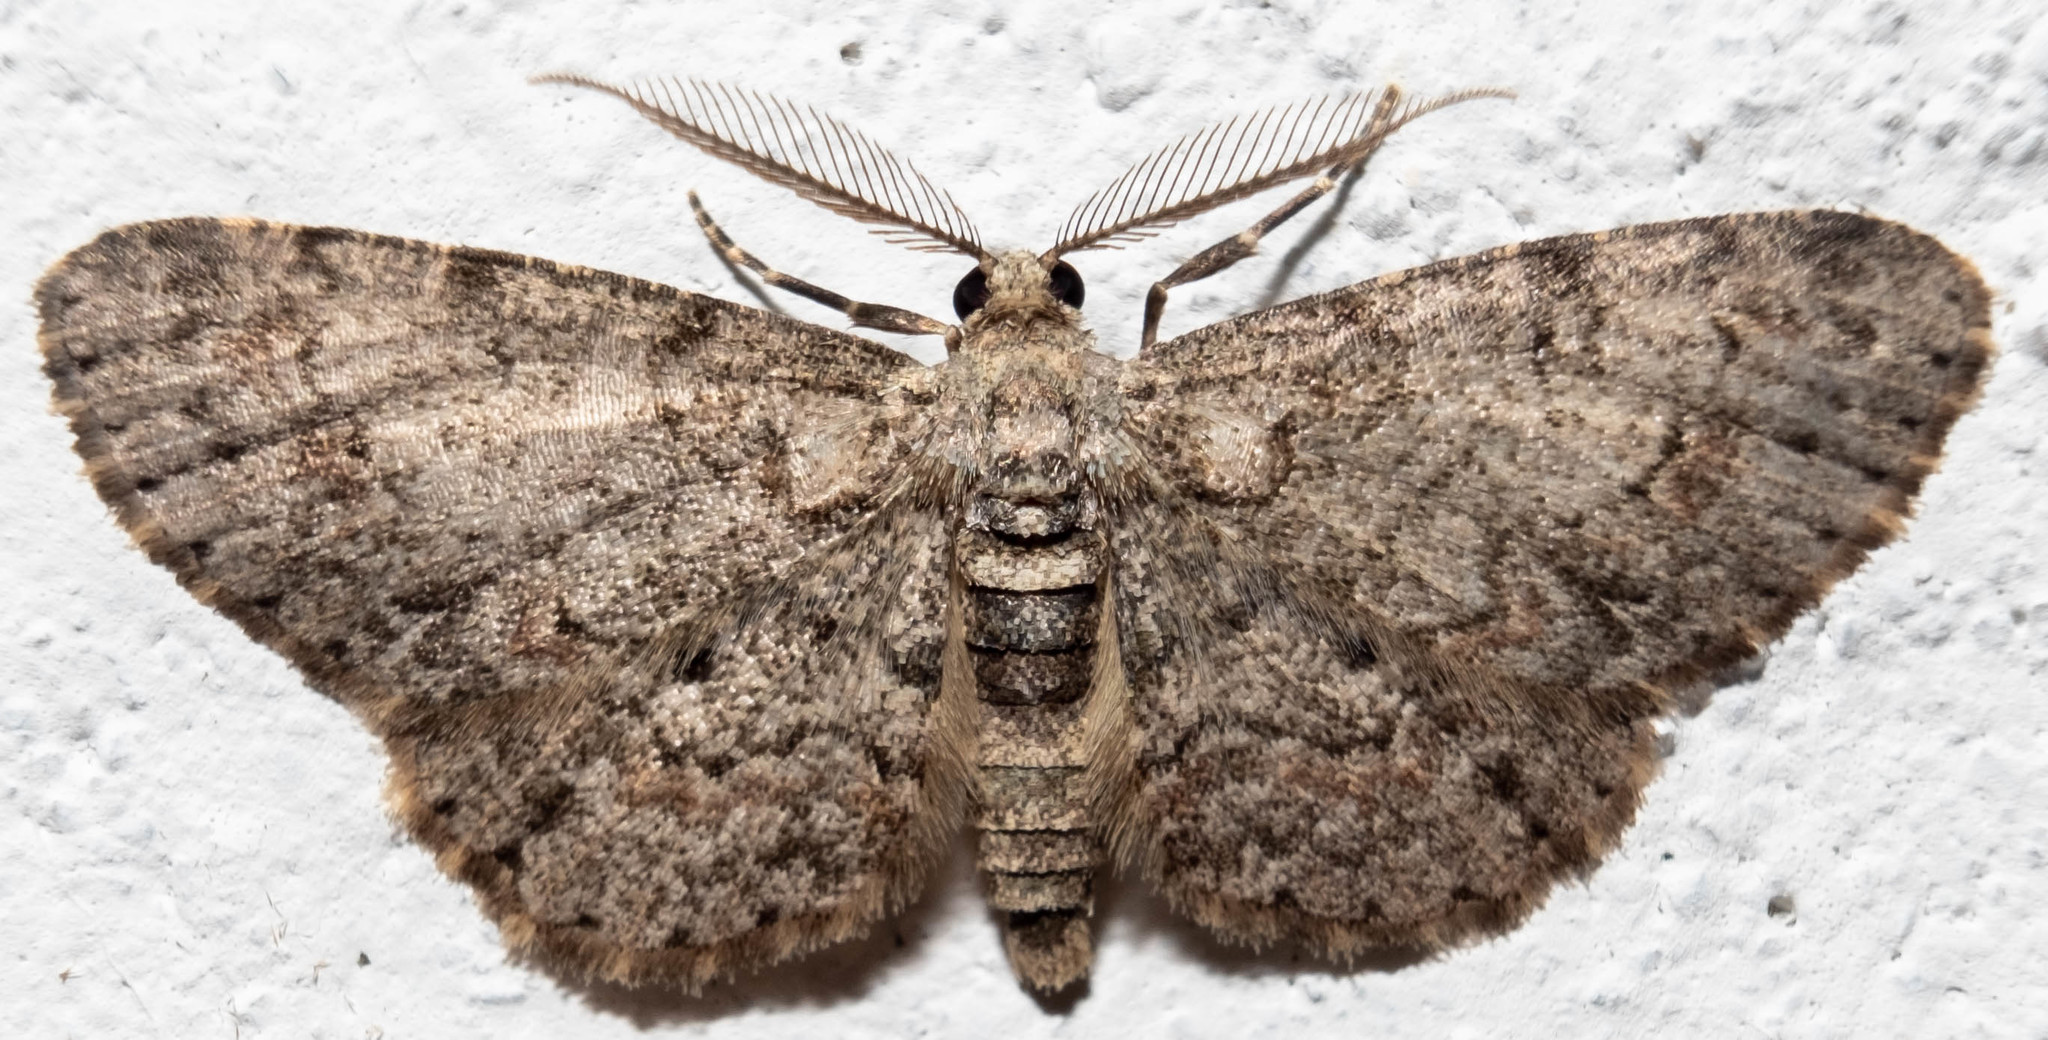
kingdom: Animalia
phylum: Arthropoda
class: Insecta
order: Lepidoptera
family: Geometridae
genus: Glenoides
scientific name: Glenoides texanaria
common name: Texas gray
